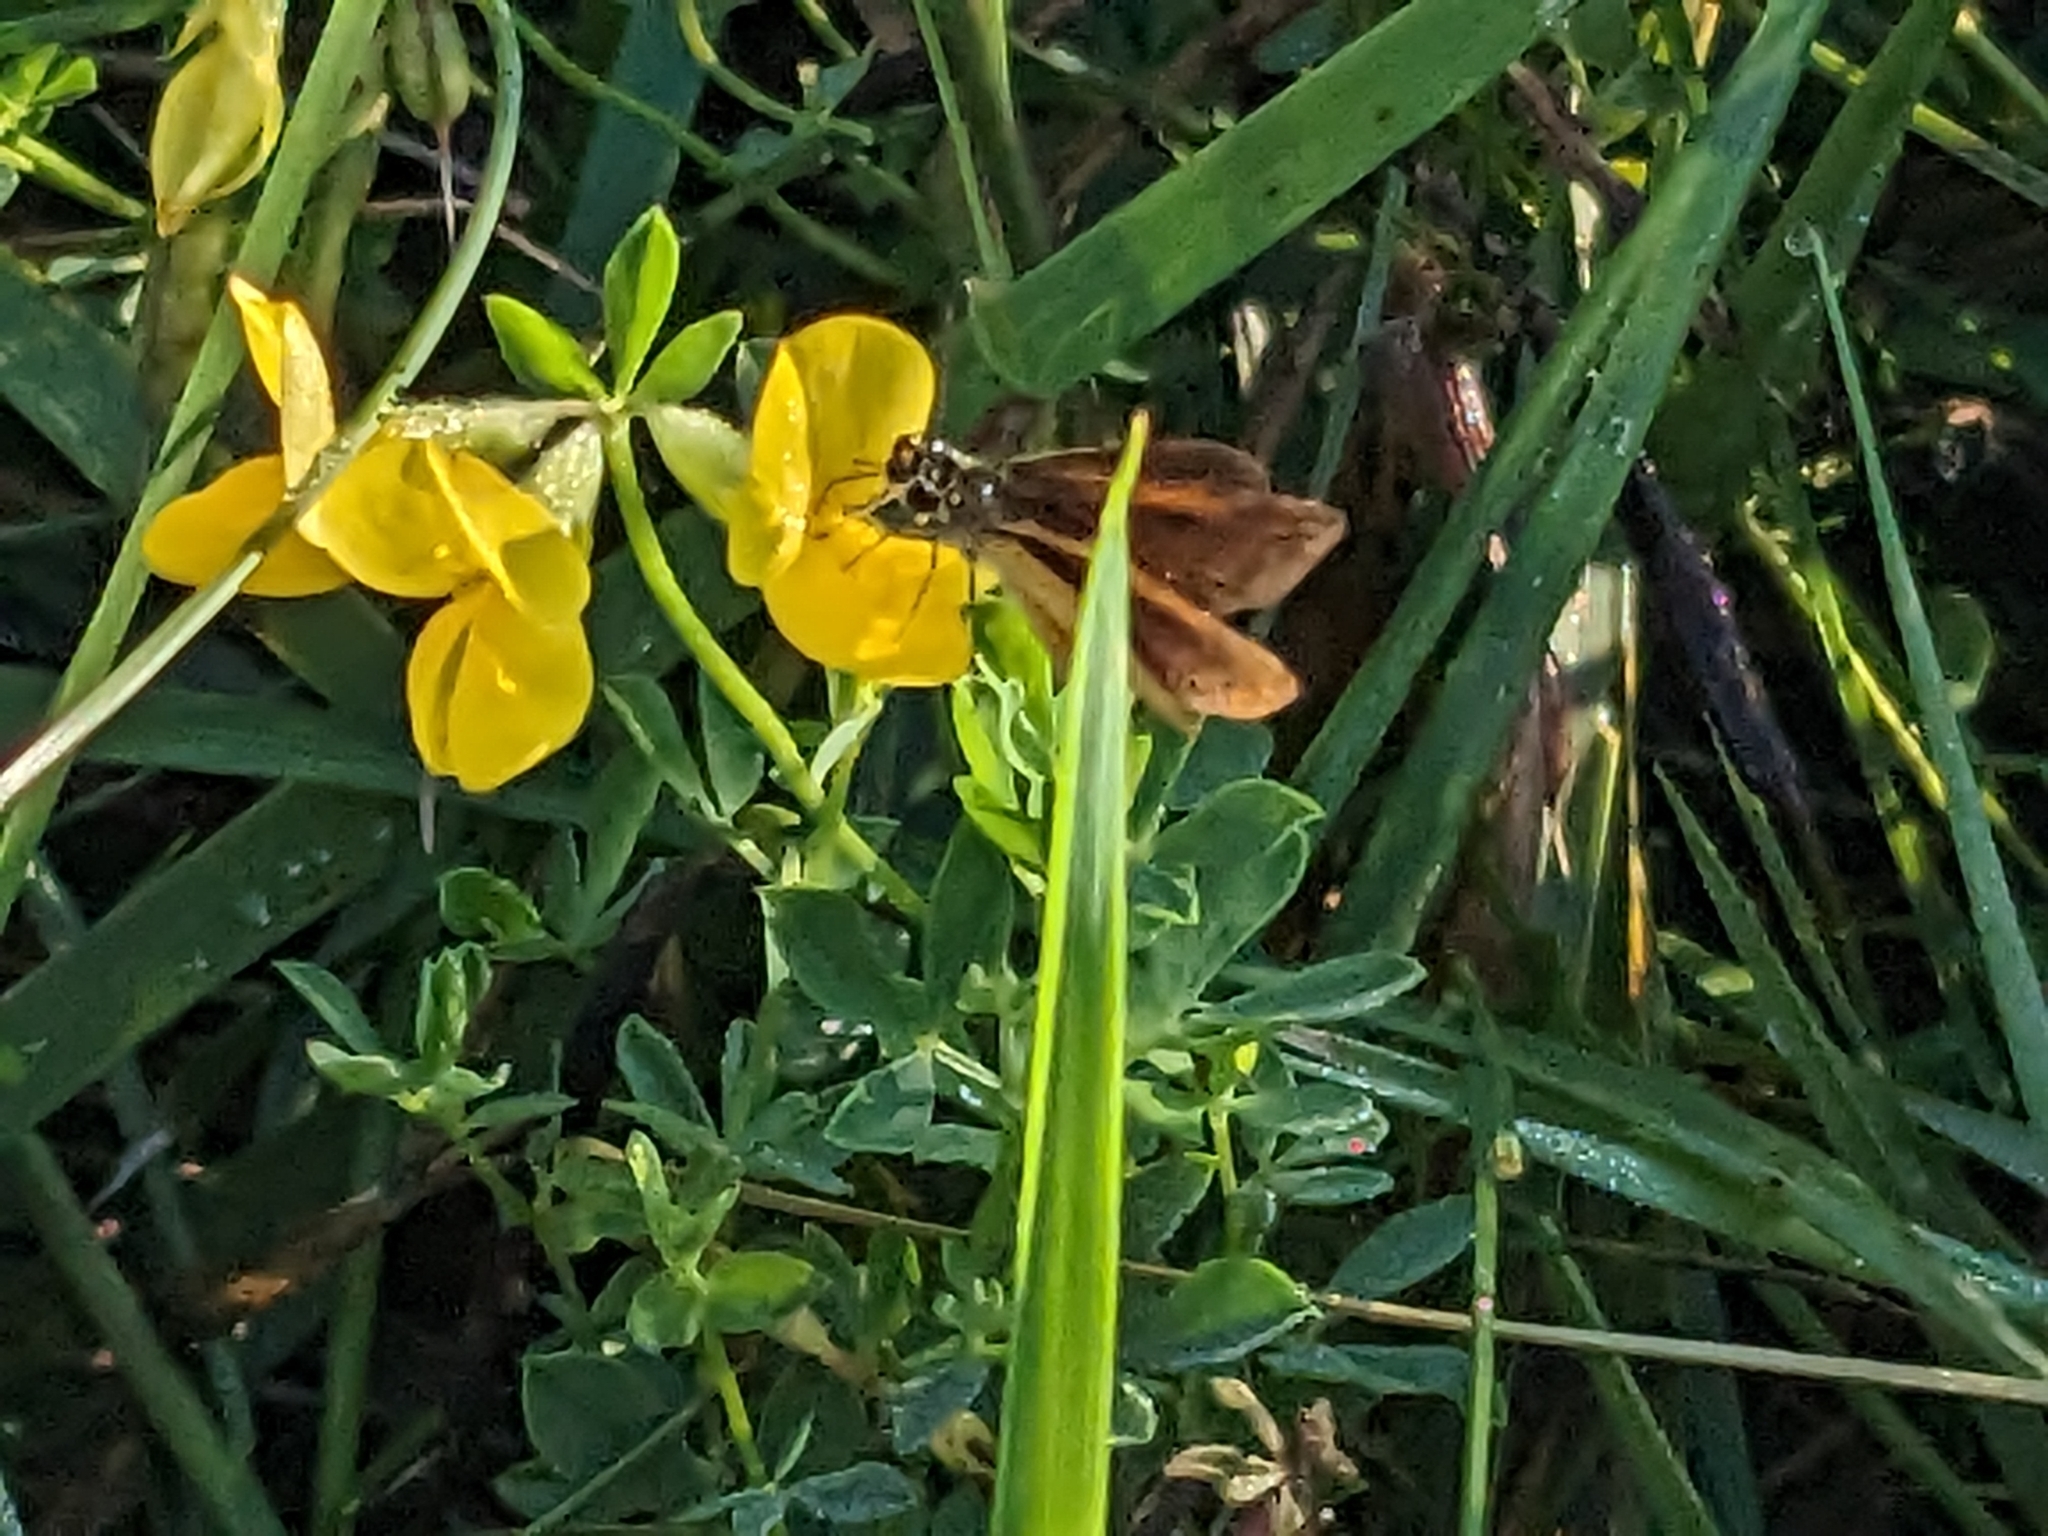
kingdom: Animalia
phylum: Arthropoda
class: Insecta
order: Lepidoptera
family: Hesperiidae
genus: Ancyloxypha
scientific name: Ancyloxypha numitor
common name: Least skipper
